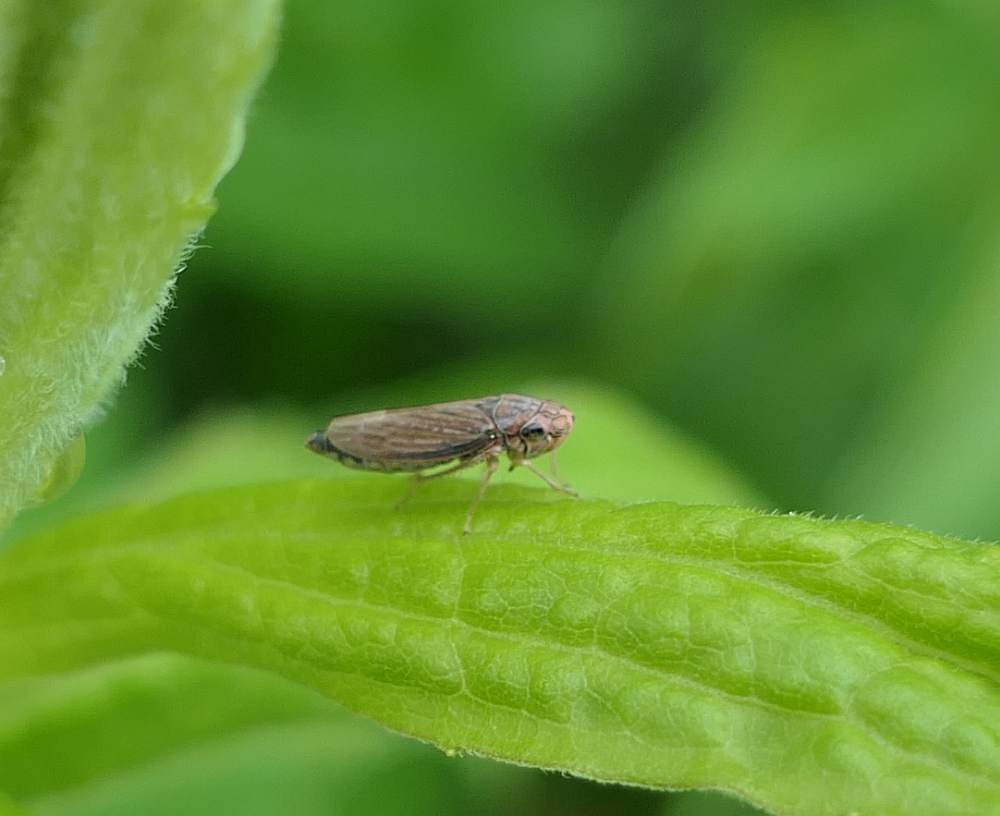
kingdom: Animalia
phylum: Arthropoda
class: Insecta
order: Hemiptera
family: Cicadellidae
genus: Neokolla
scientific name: Neokolla hieroglyphica
